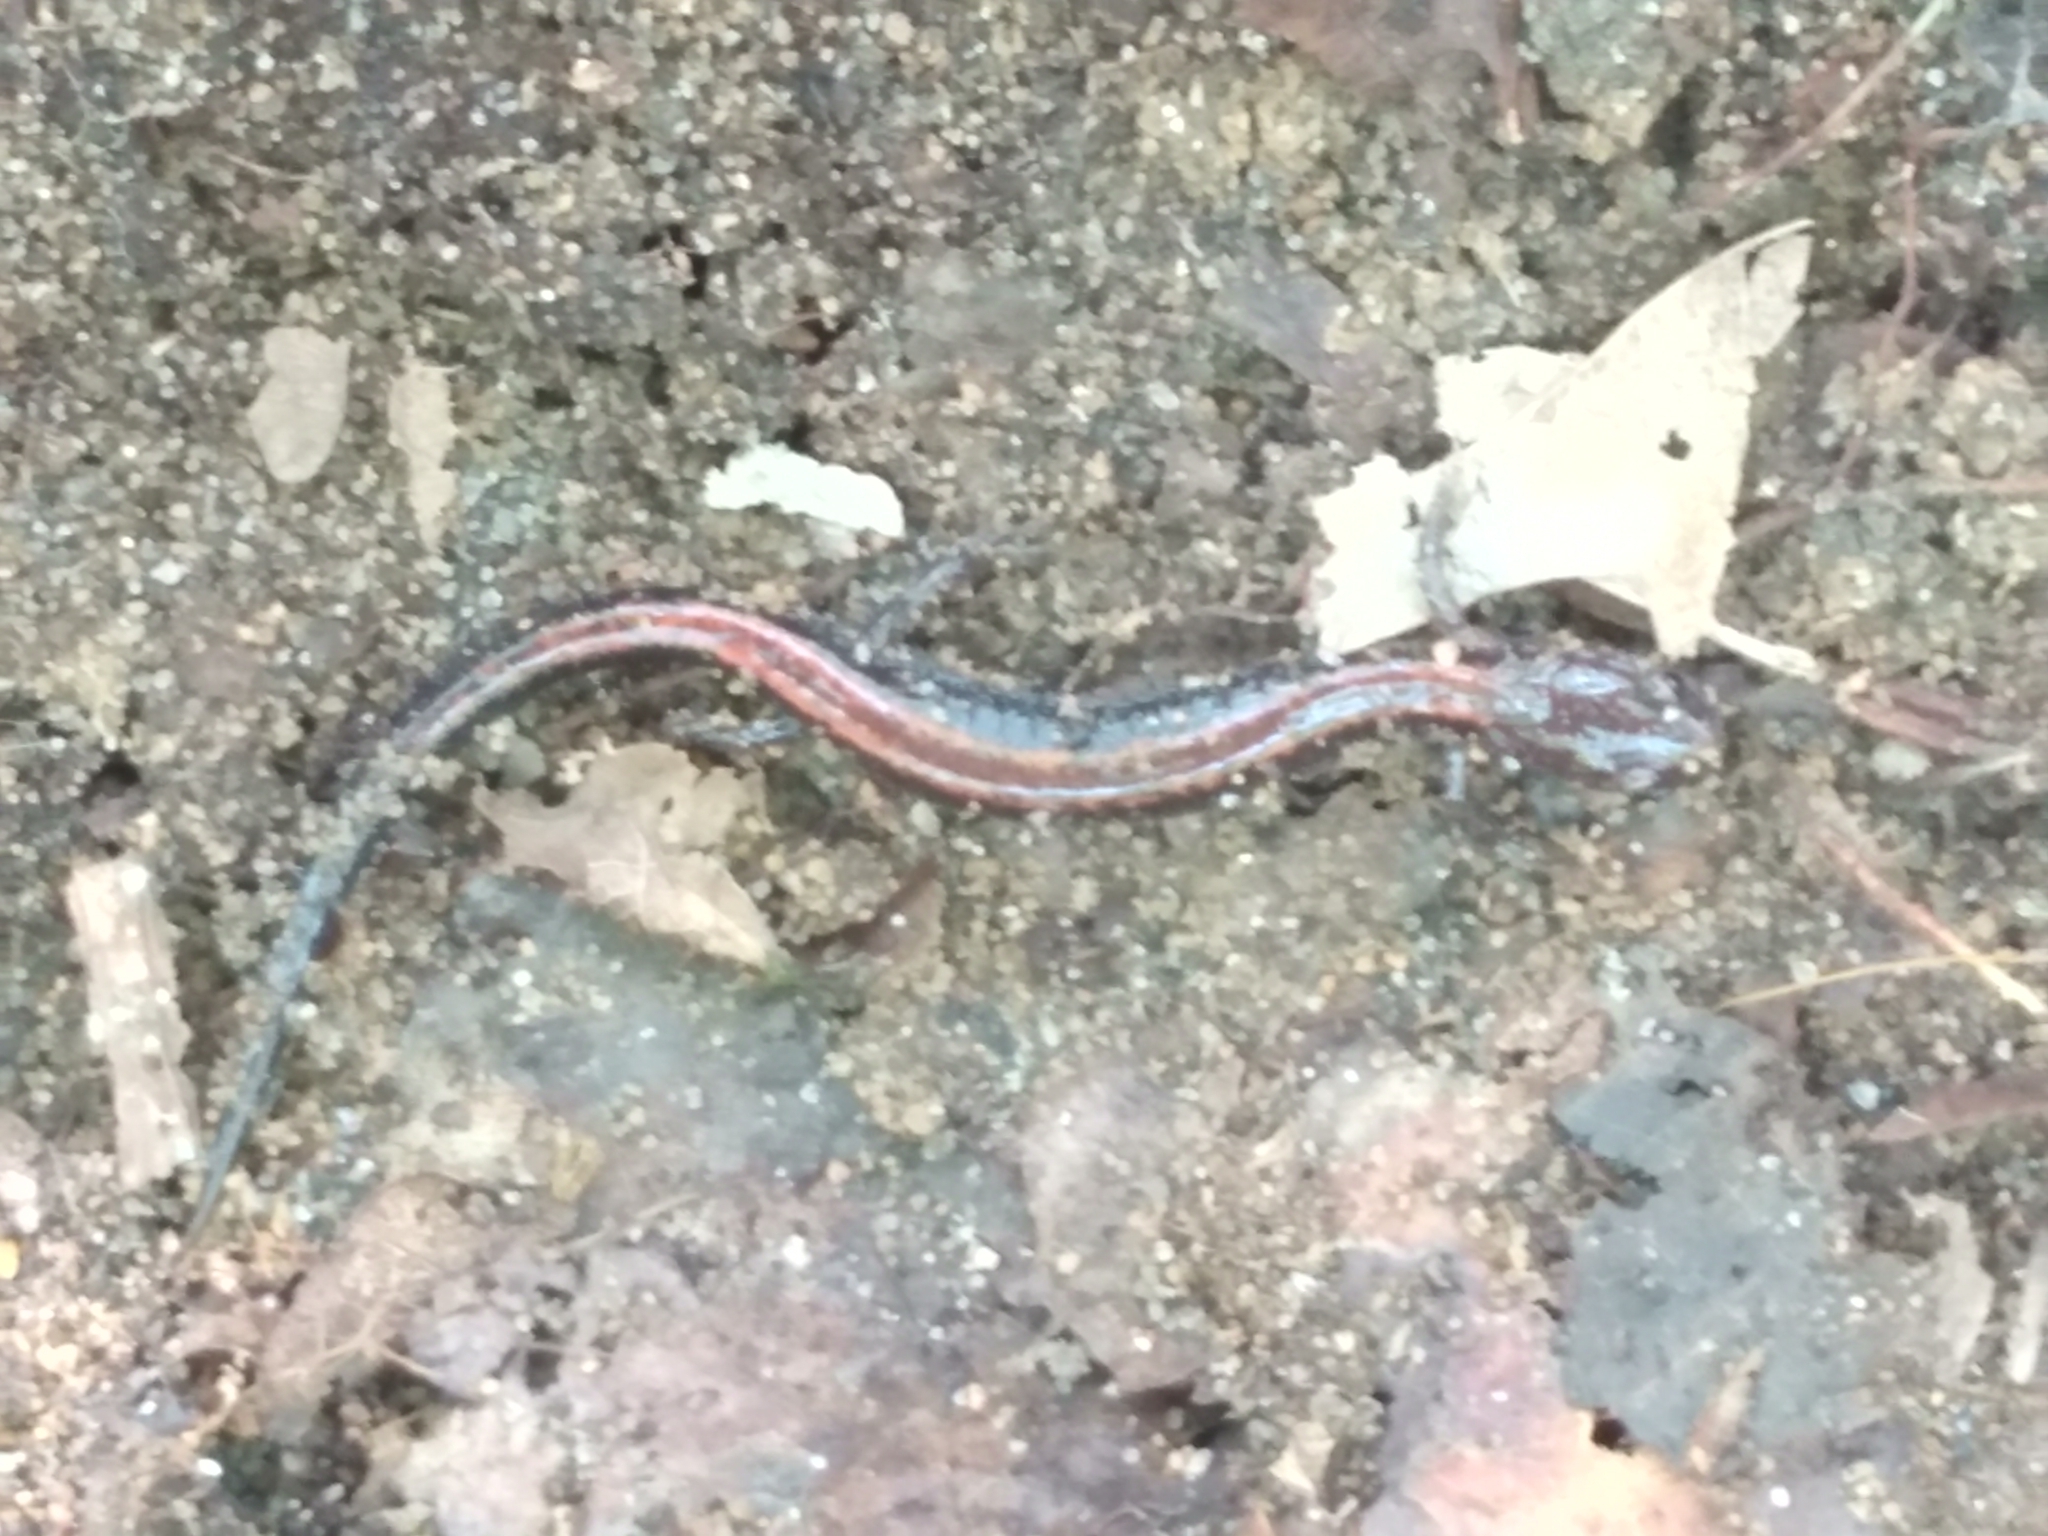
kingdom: Animalia
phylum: Chordata
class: Amphibia
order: Caudata
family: Plethodontidae
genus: Plethodon
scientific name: Plethodon cinereus
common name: Redback salamander
